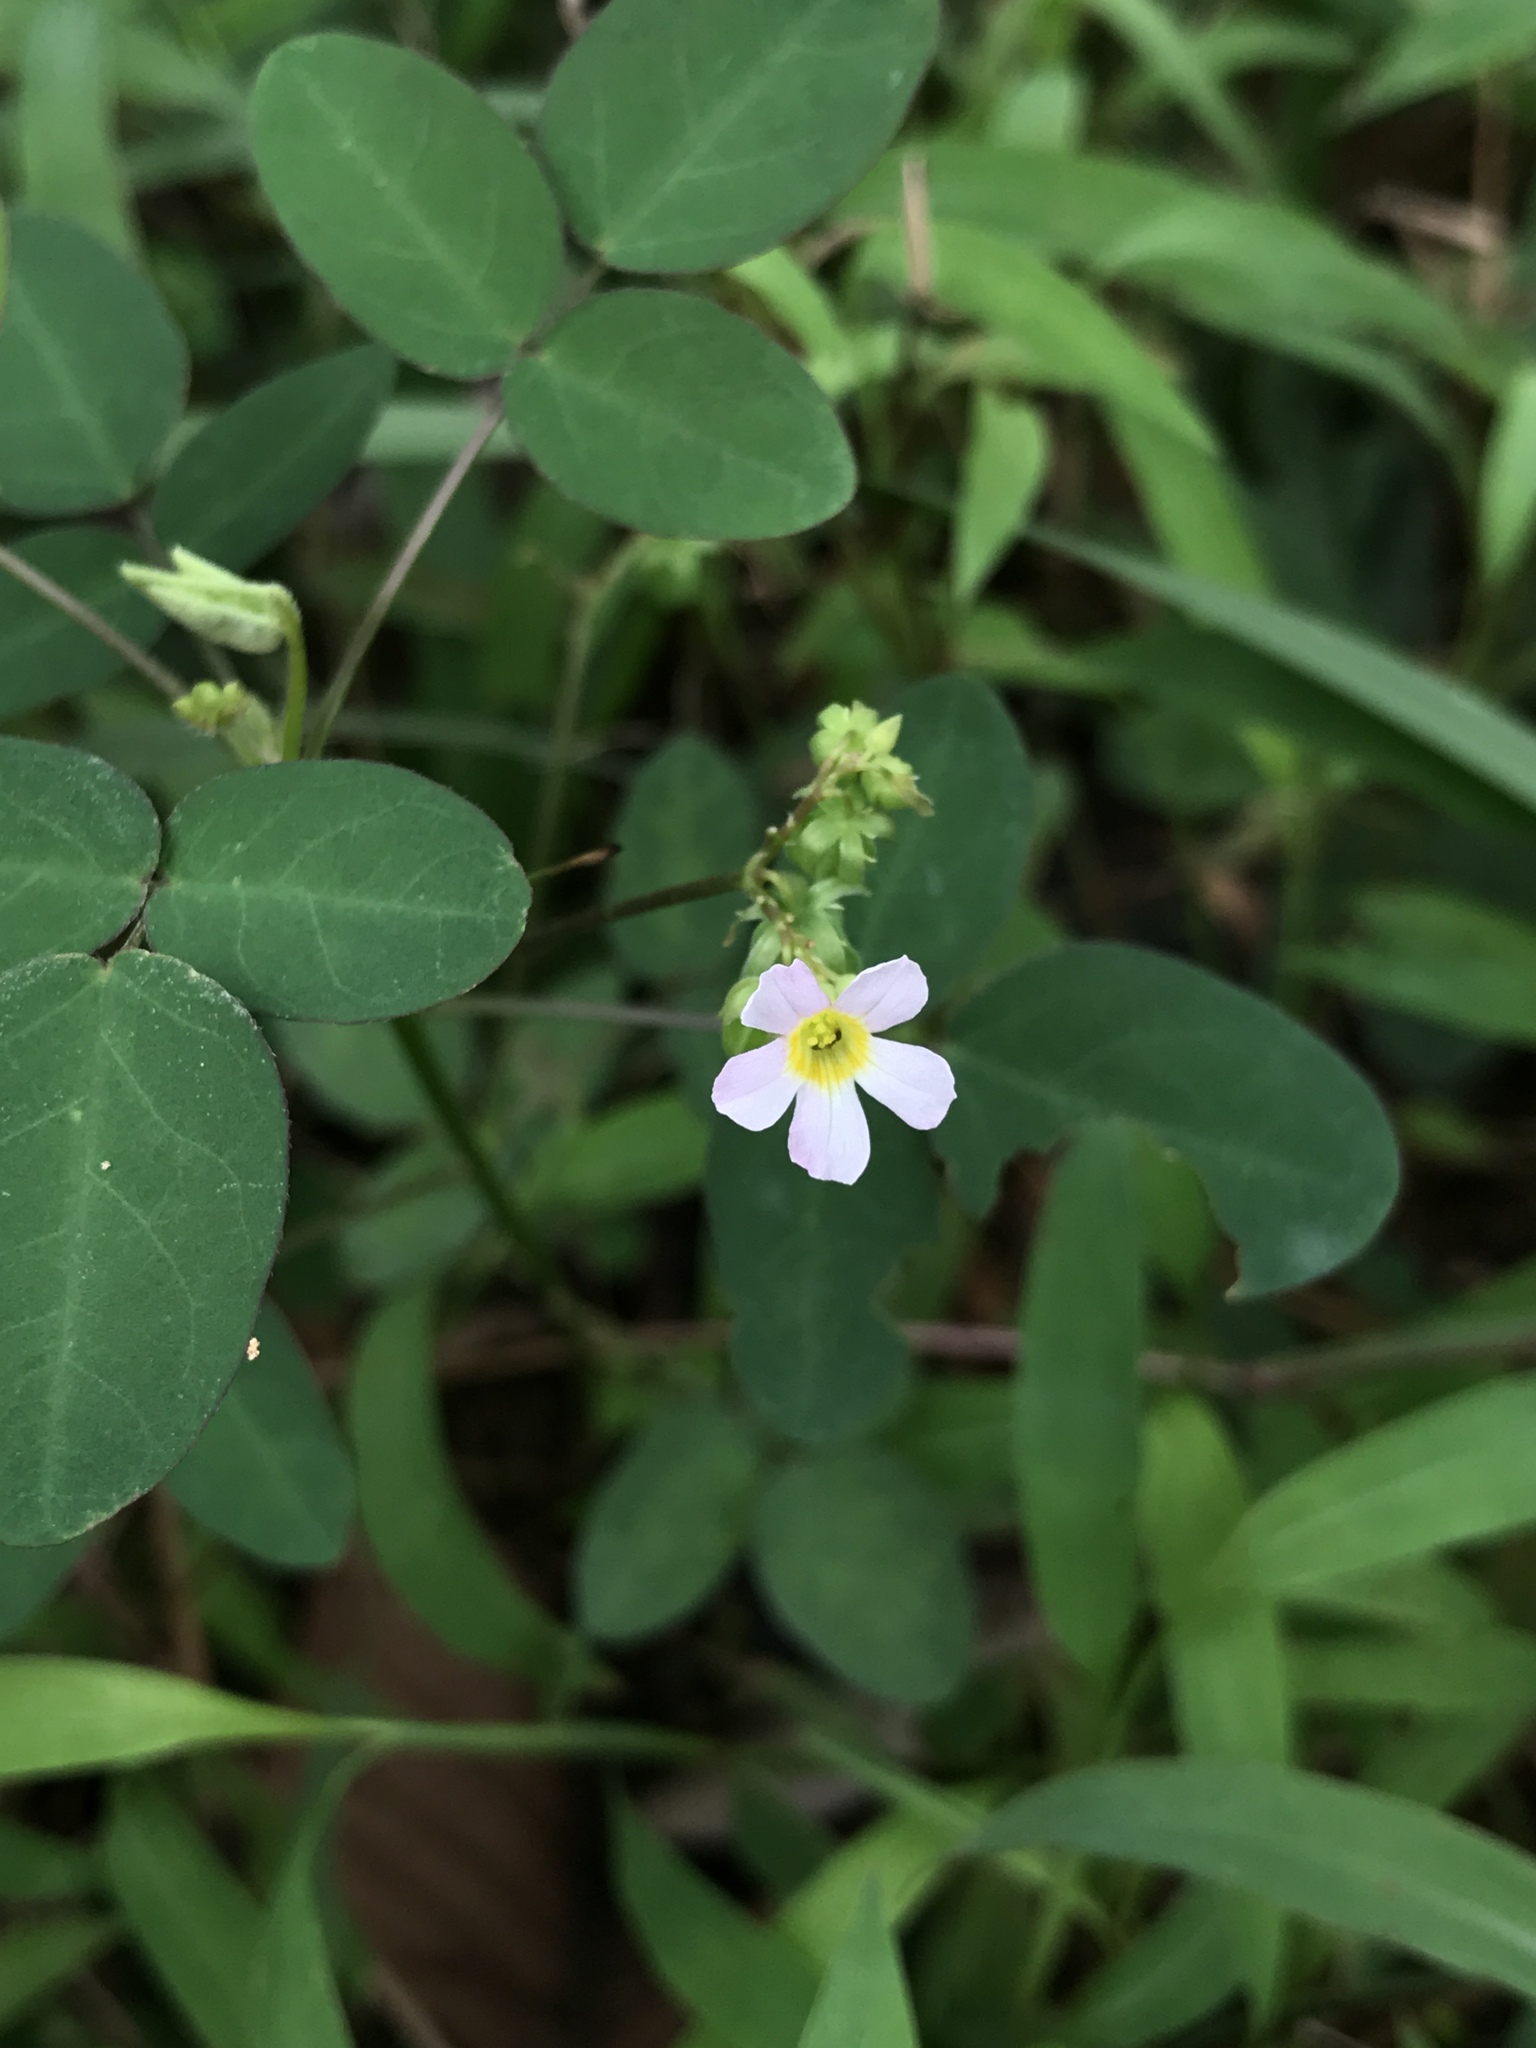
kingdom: Plantae
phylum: Tracheophyta
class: Magnoliopsida
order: Oxalidales
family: Oxalidaceae
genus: Oxalis
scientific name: Oxalis barrelieri
